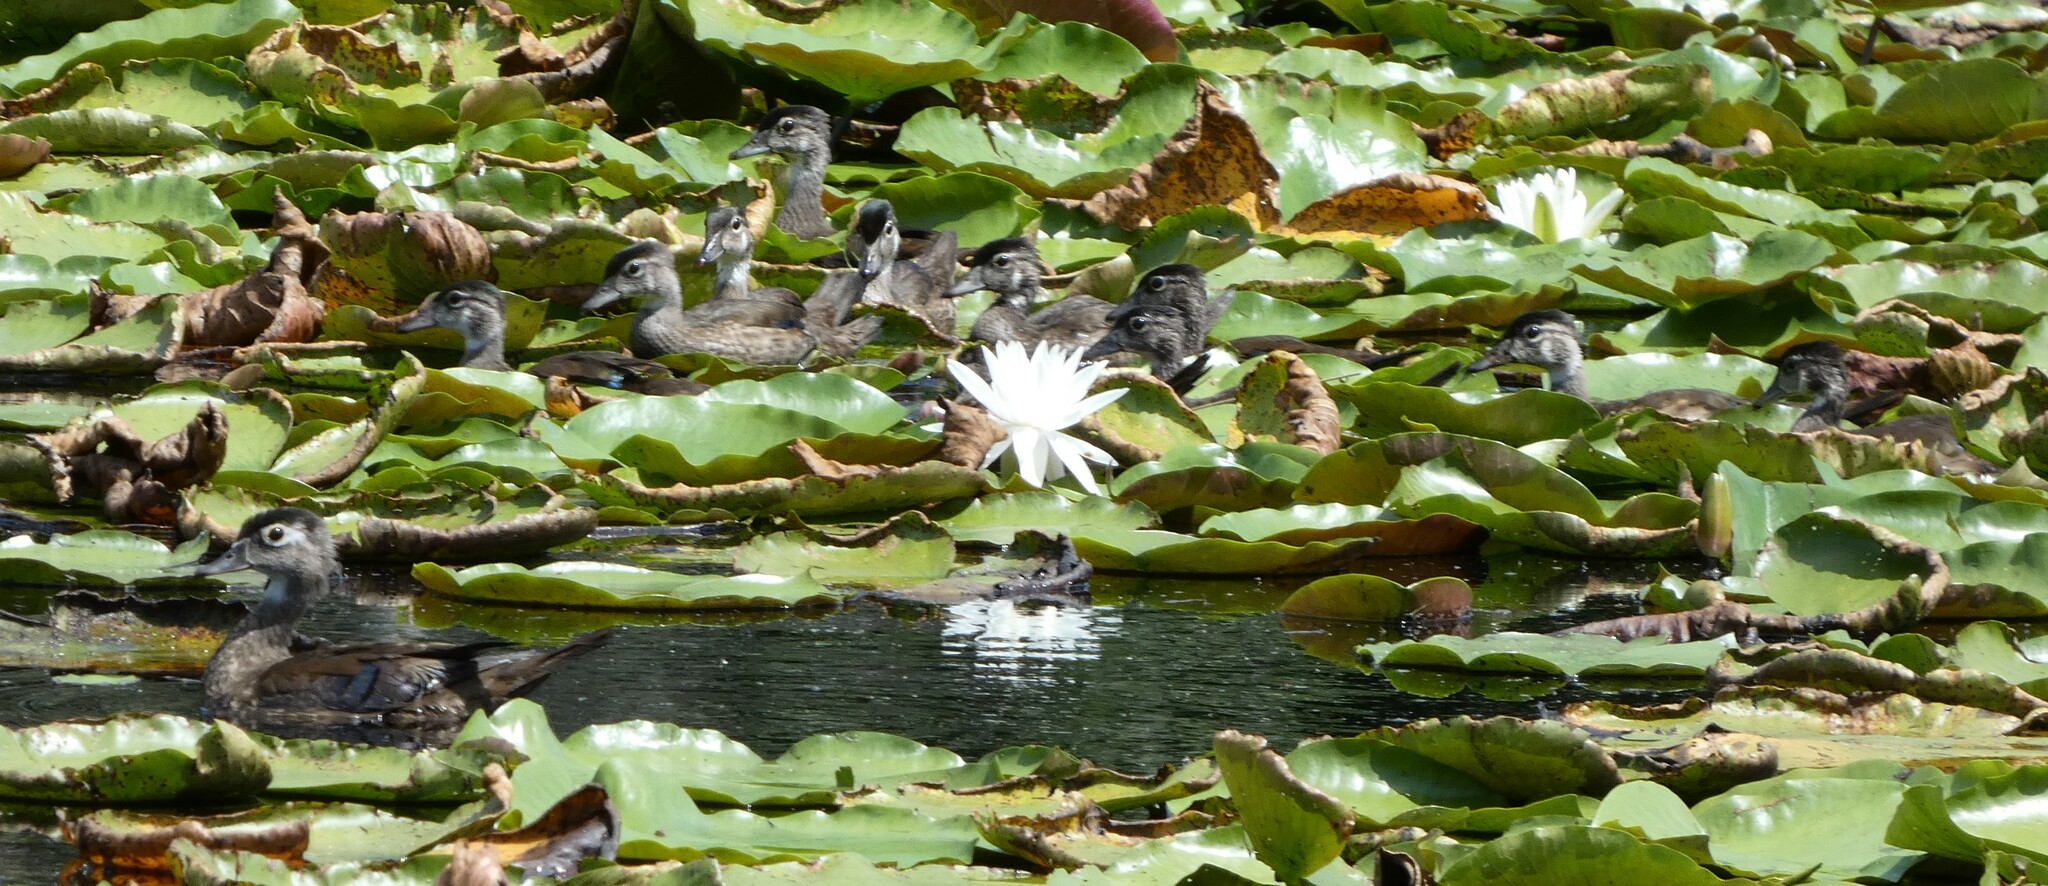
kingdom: Animalia
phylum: Chordata
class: Aves
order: Anseriformes
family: Anatidae
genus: Aix
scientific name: Aix sponsa
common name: Wood duck
